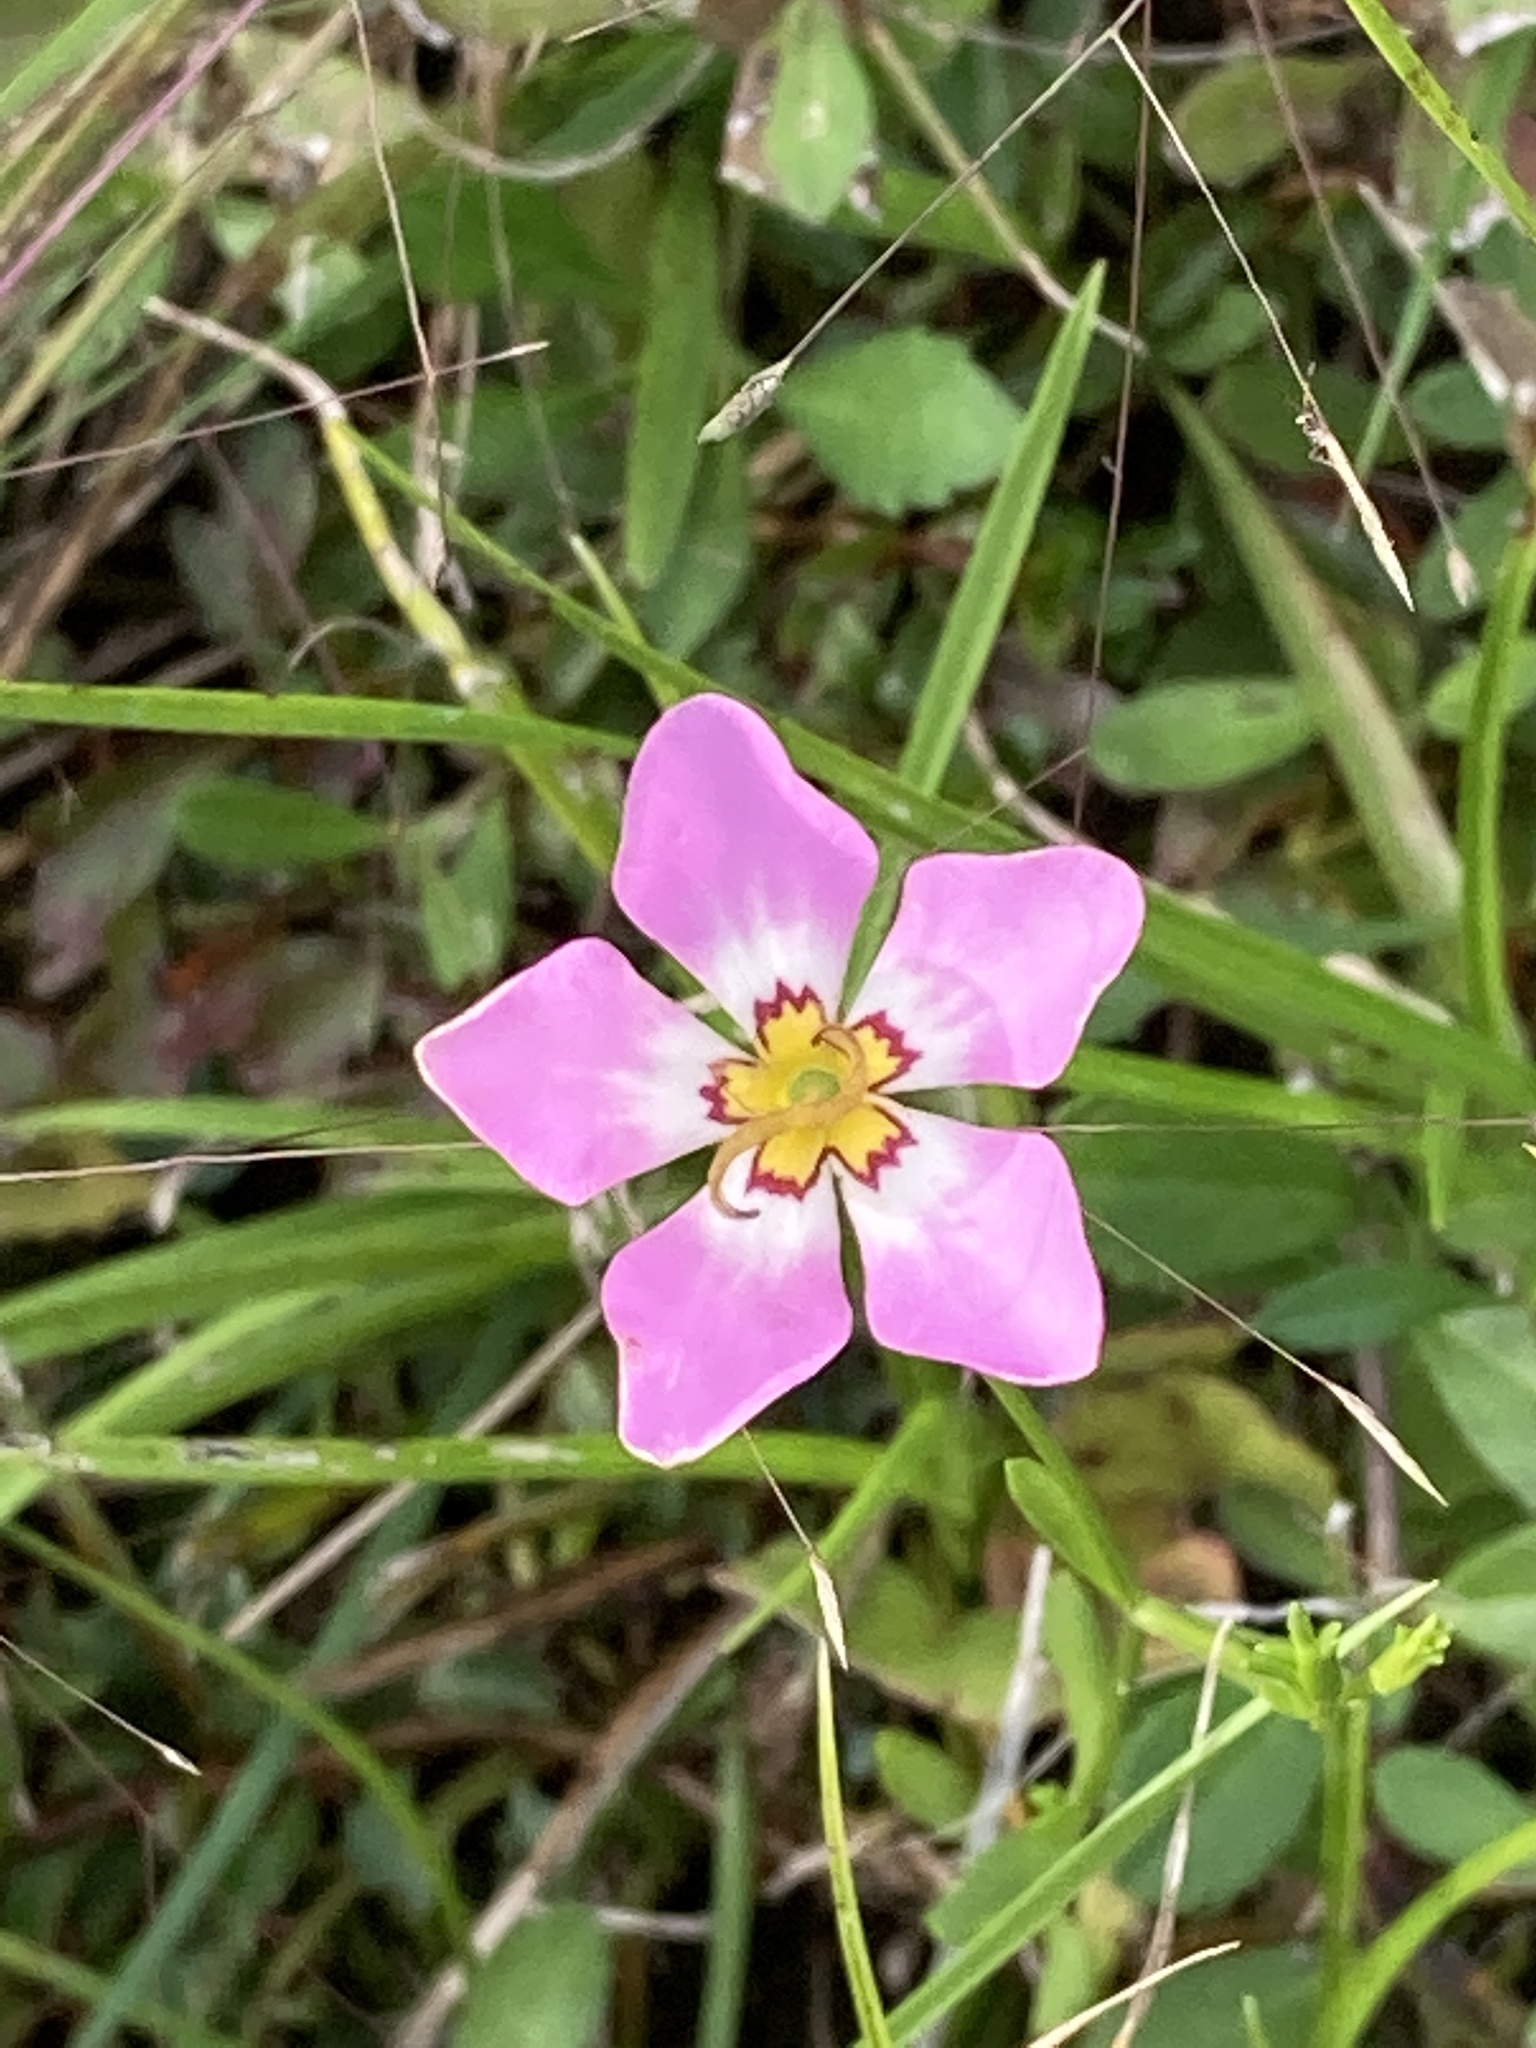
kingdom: Plantae
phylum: Tracheophyta
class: Magnoliopsida
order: Gentianales
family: Gentianaceae
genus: Sabatia
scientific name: Sabatia stellaris
